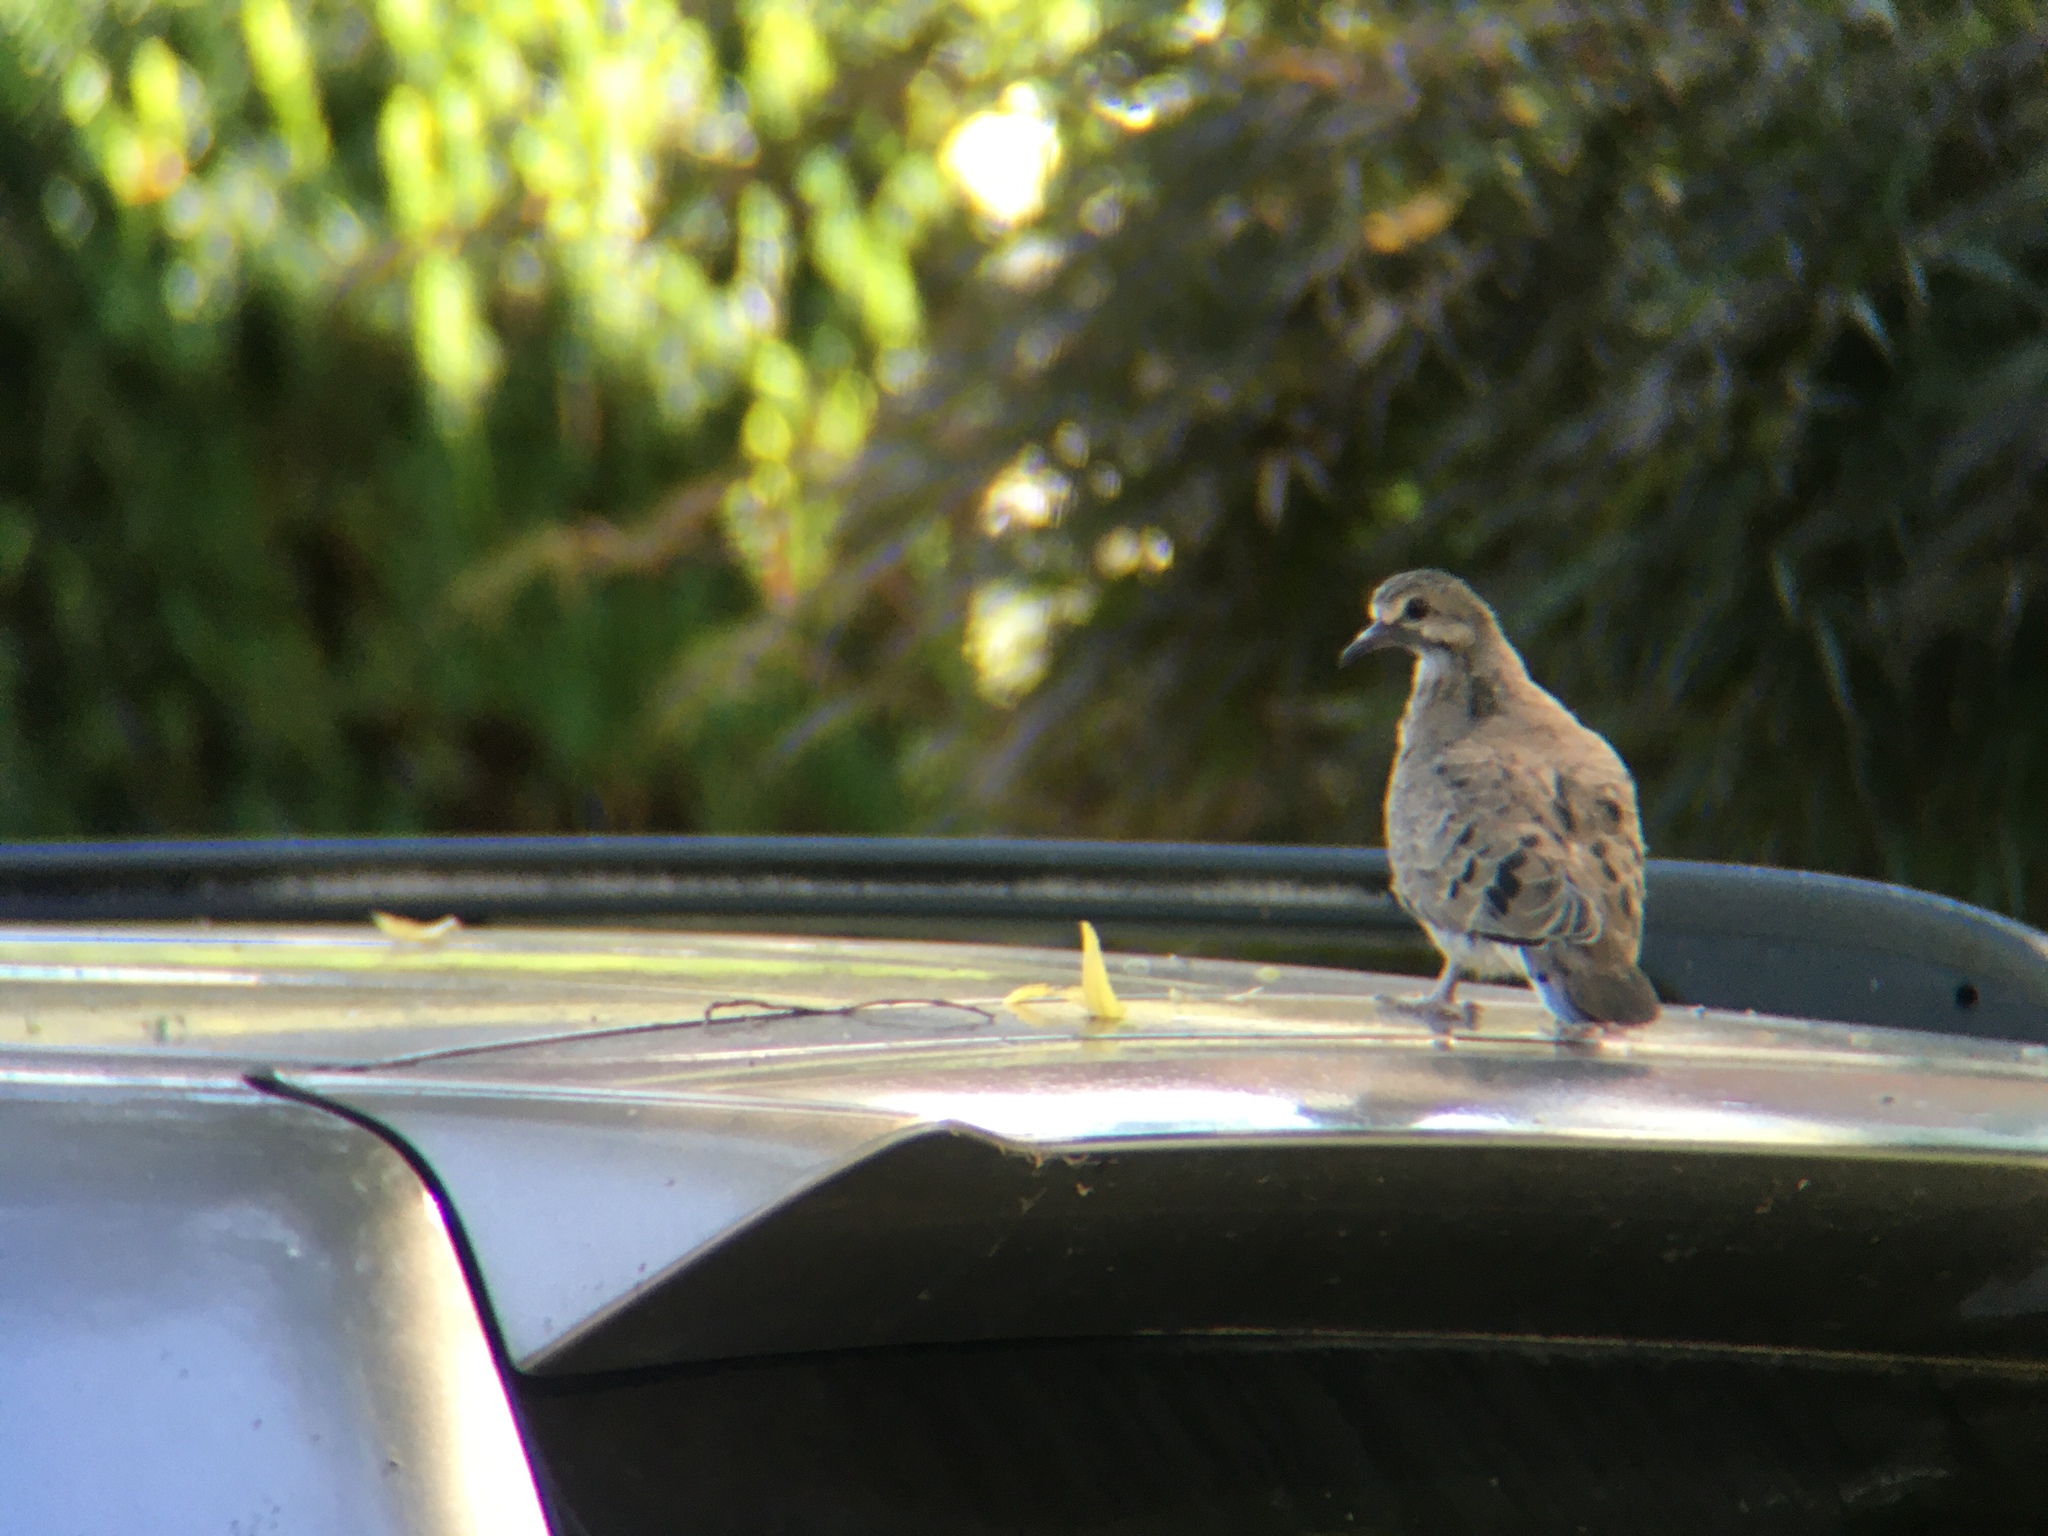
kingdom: Animalia
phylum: Chordata
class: Aves
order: Columbiformes
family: Columbidae
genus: Zenaida
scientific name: Zenaida macroura
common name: Mourning dove
